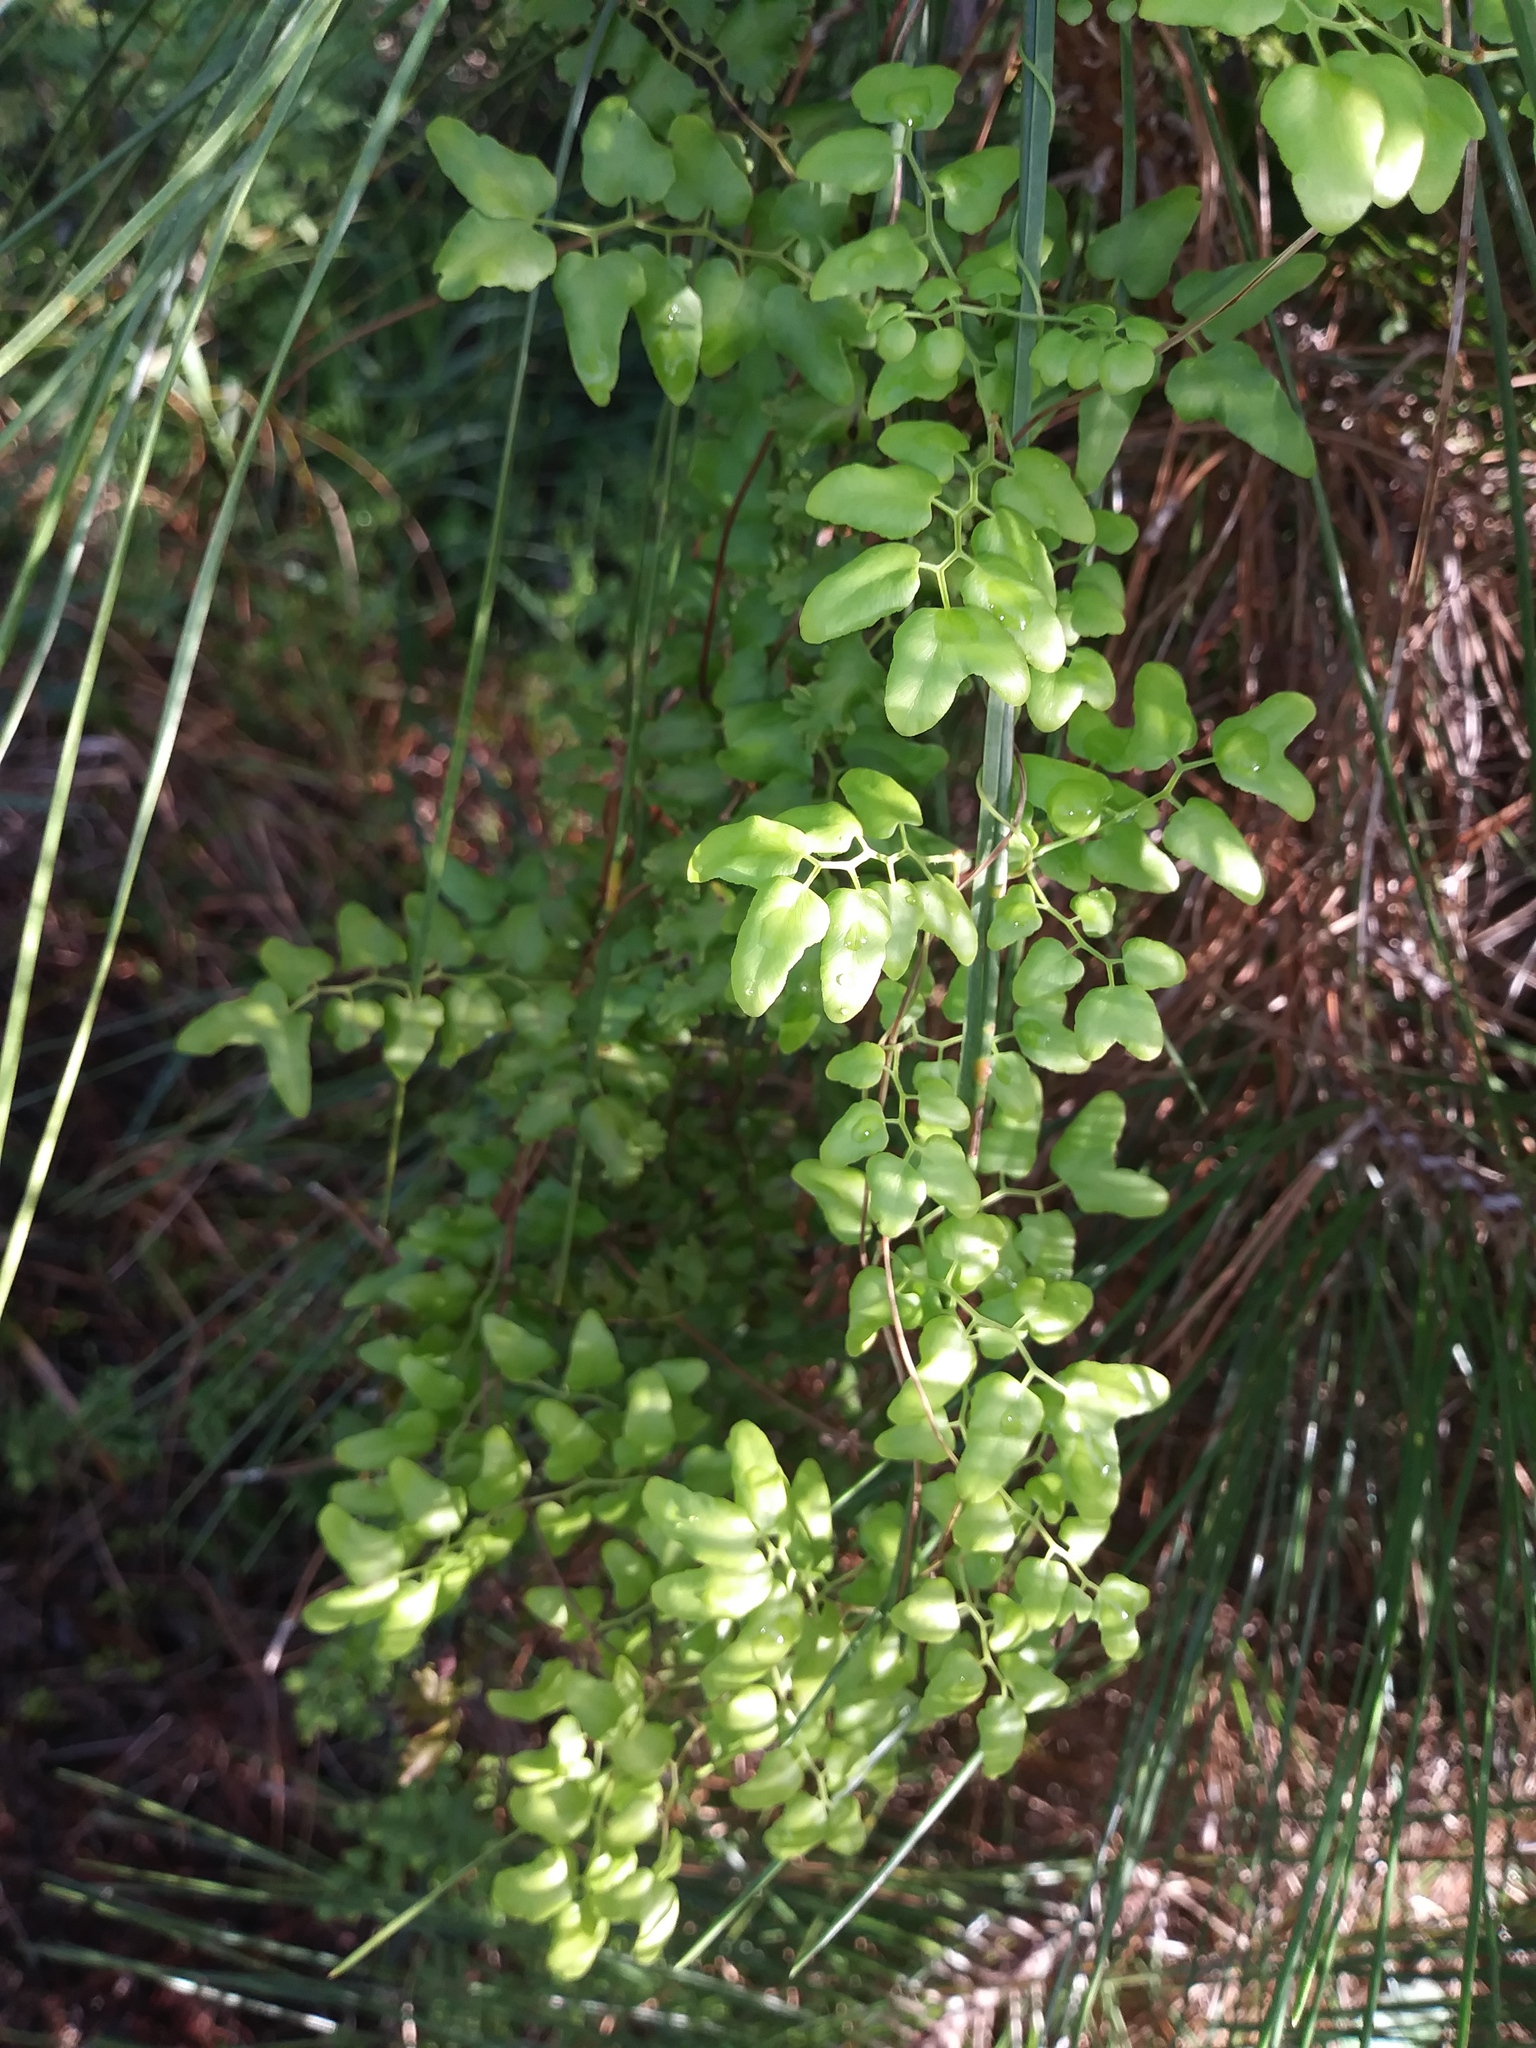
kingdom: Plantae
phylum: Tracheophyta
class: Polypodiopsida
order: Schizaeales
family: Lygodiaceae
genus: Lygodium
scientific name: Lygodium microphyllum
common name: Small-leaf climbing fern
